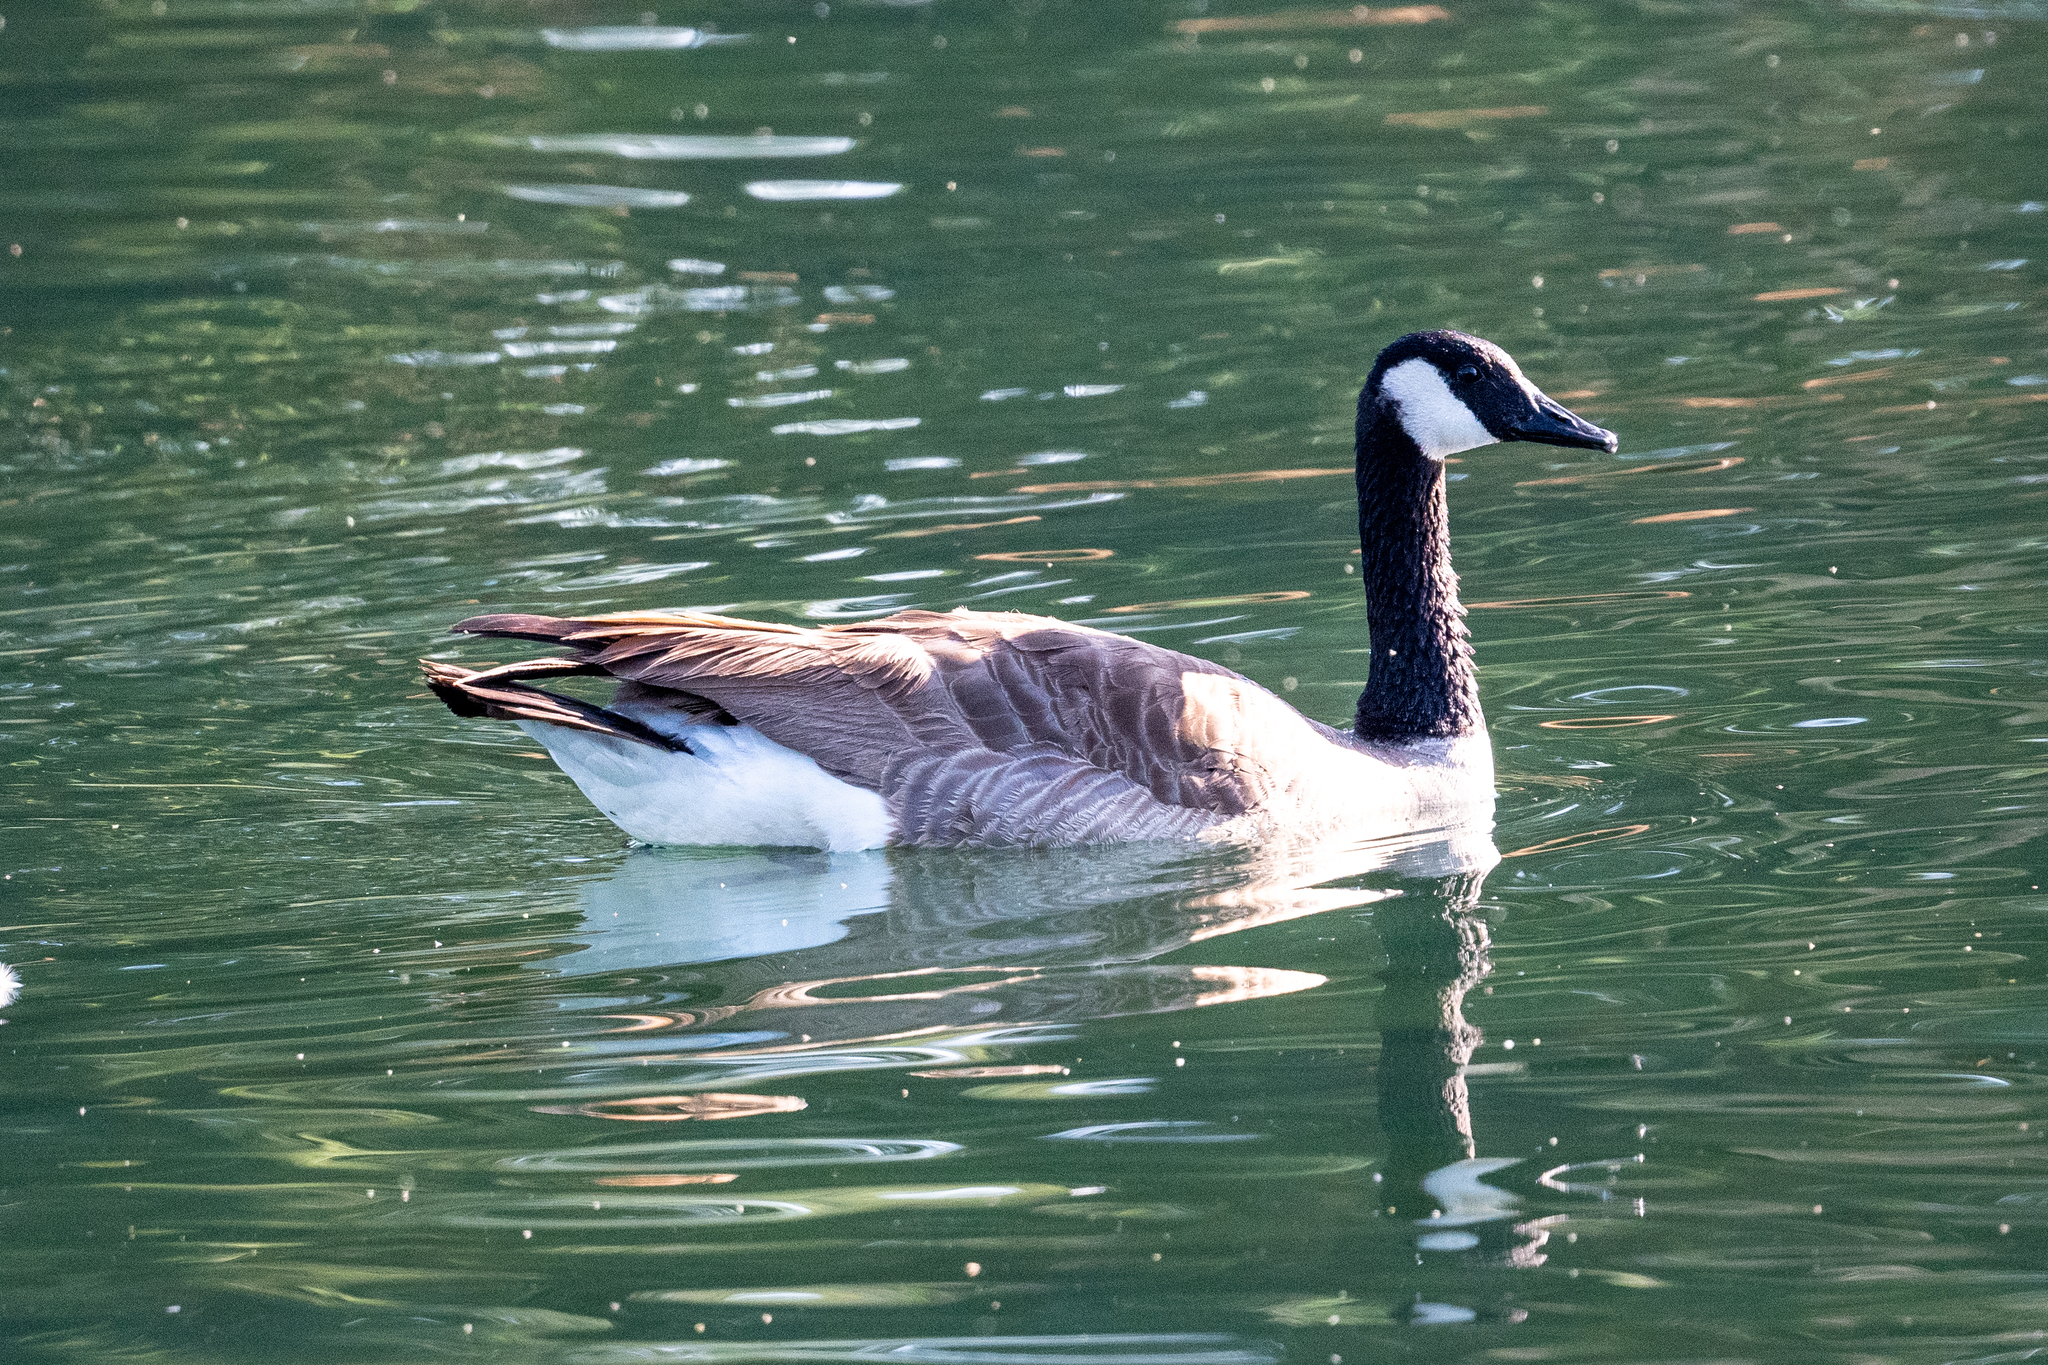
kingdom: Animalia
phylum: Chordata
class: Aves
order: Anseriformes
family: Anatidae
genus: Branta
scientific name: Branta canadensis
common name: Canada goose
